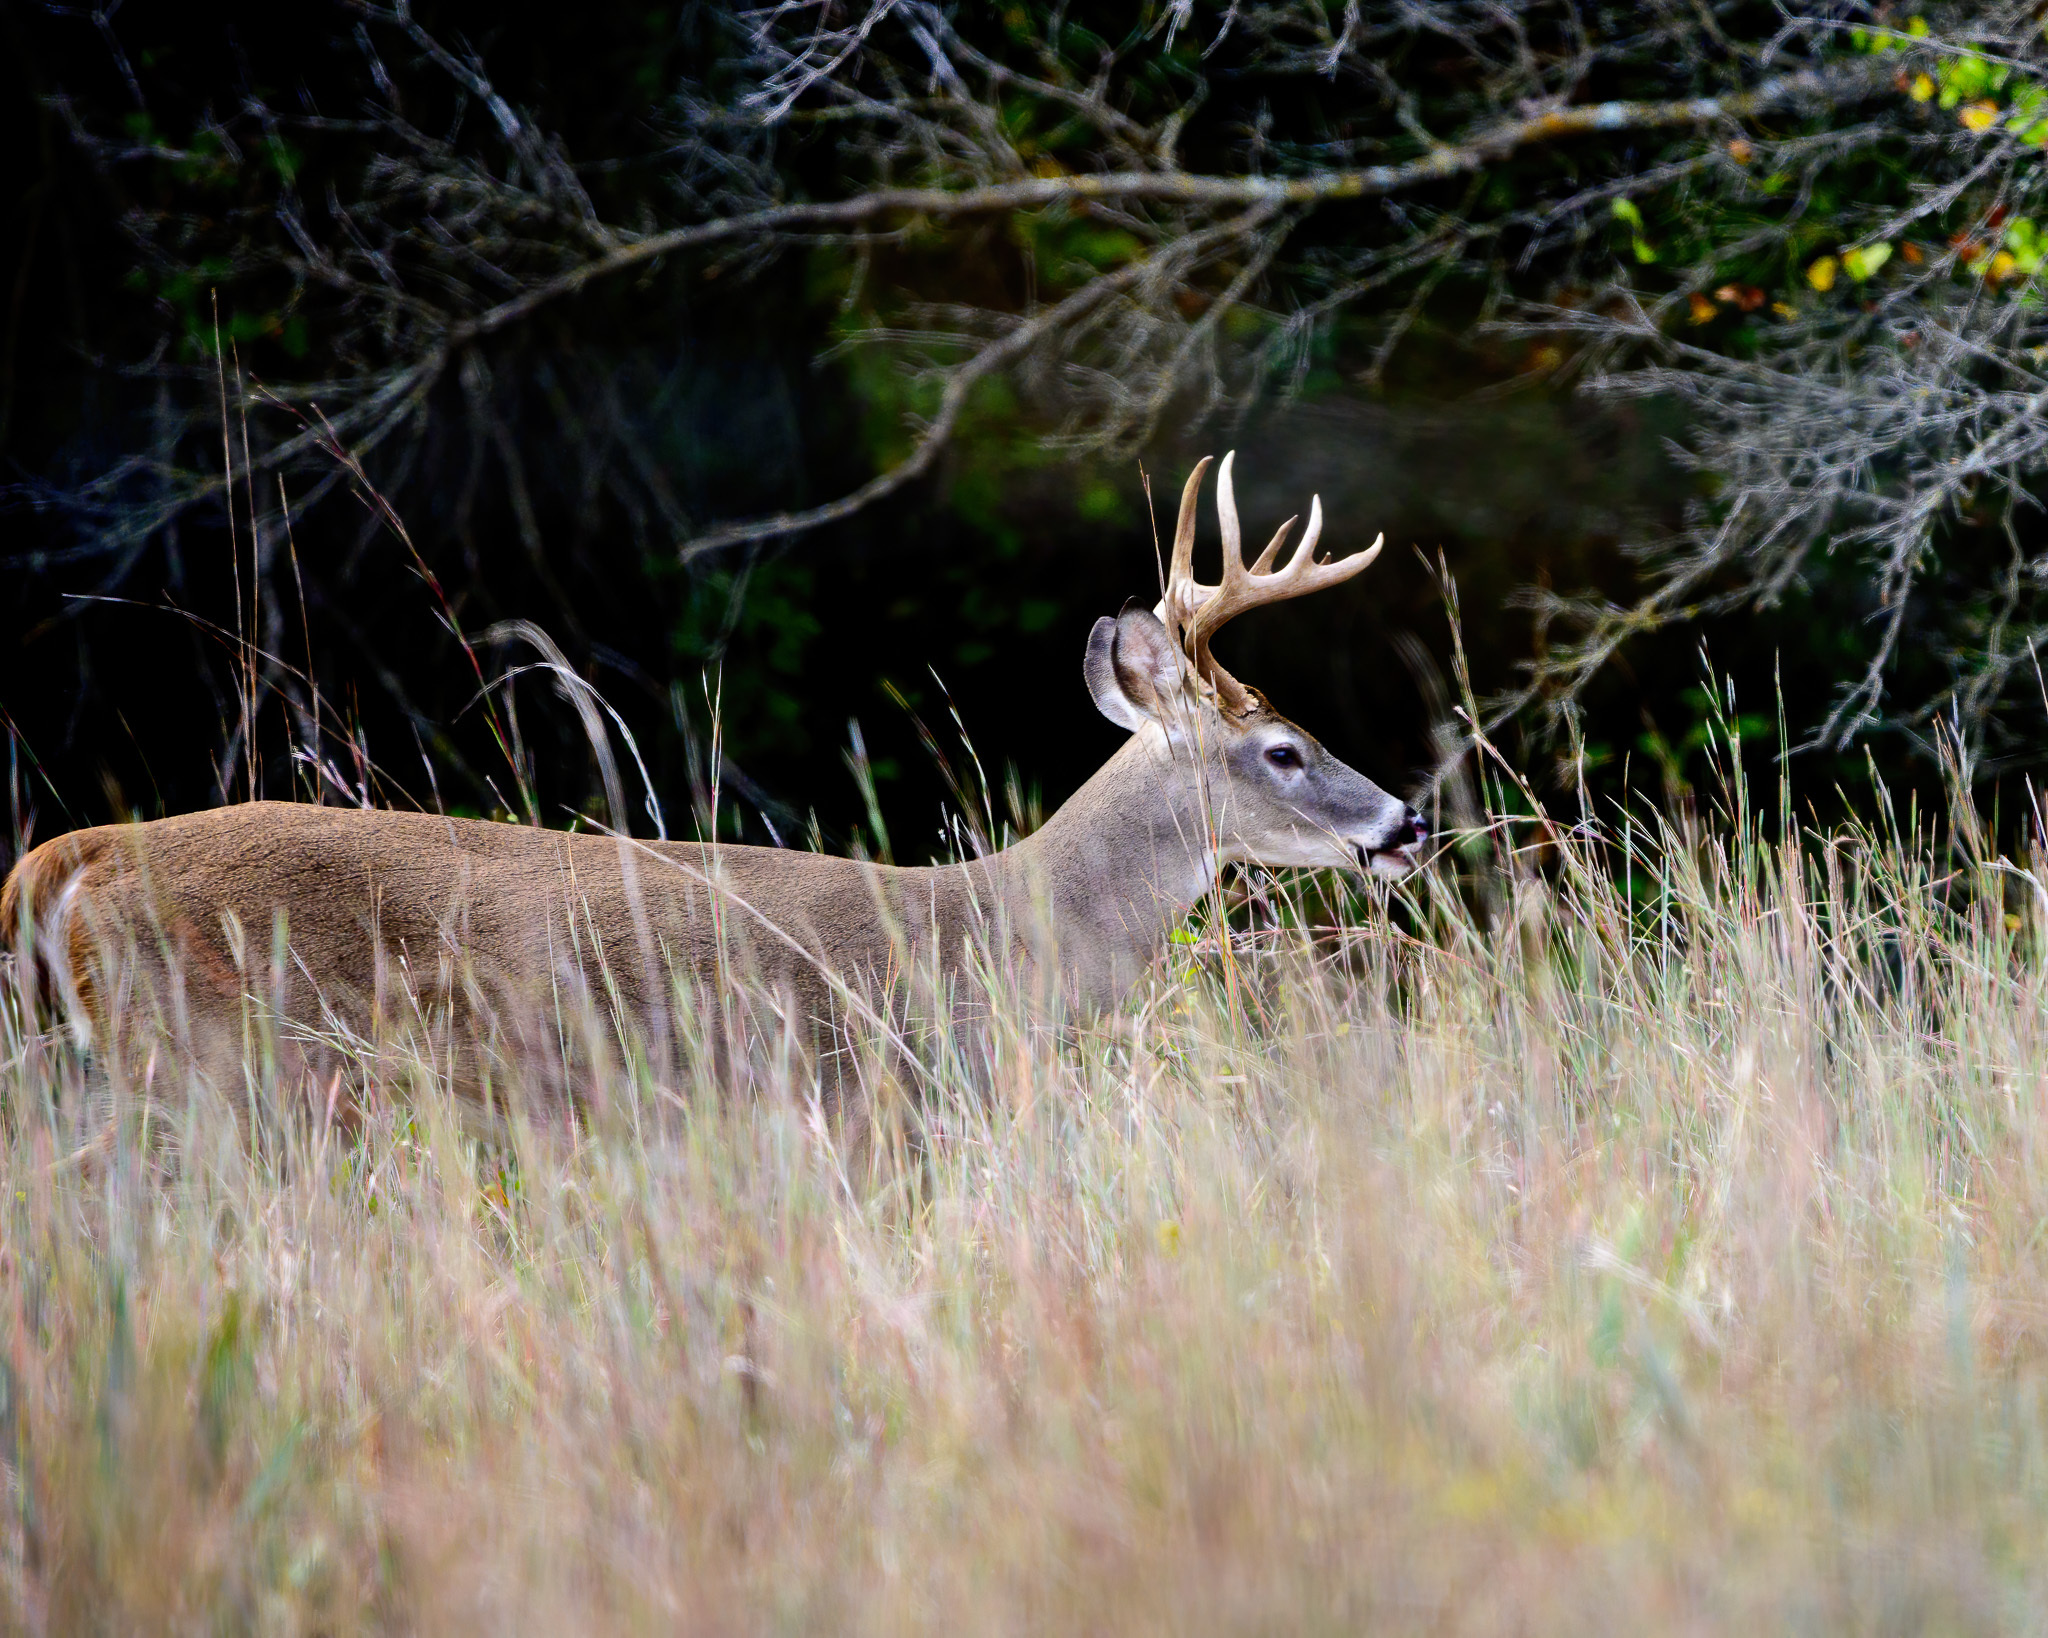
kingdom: Animalia
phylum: Chordata
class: Mammalia
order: Artiodactyla
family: Cervidae
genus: Odocoileus
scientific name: Odocoileus virginianus
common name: White-tailed deer
